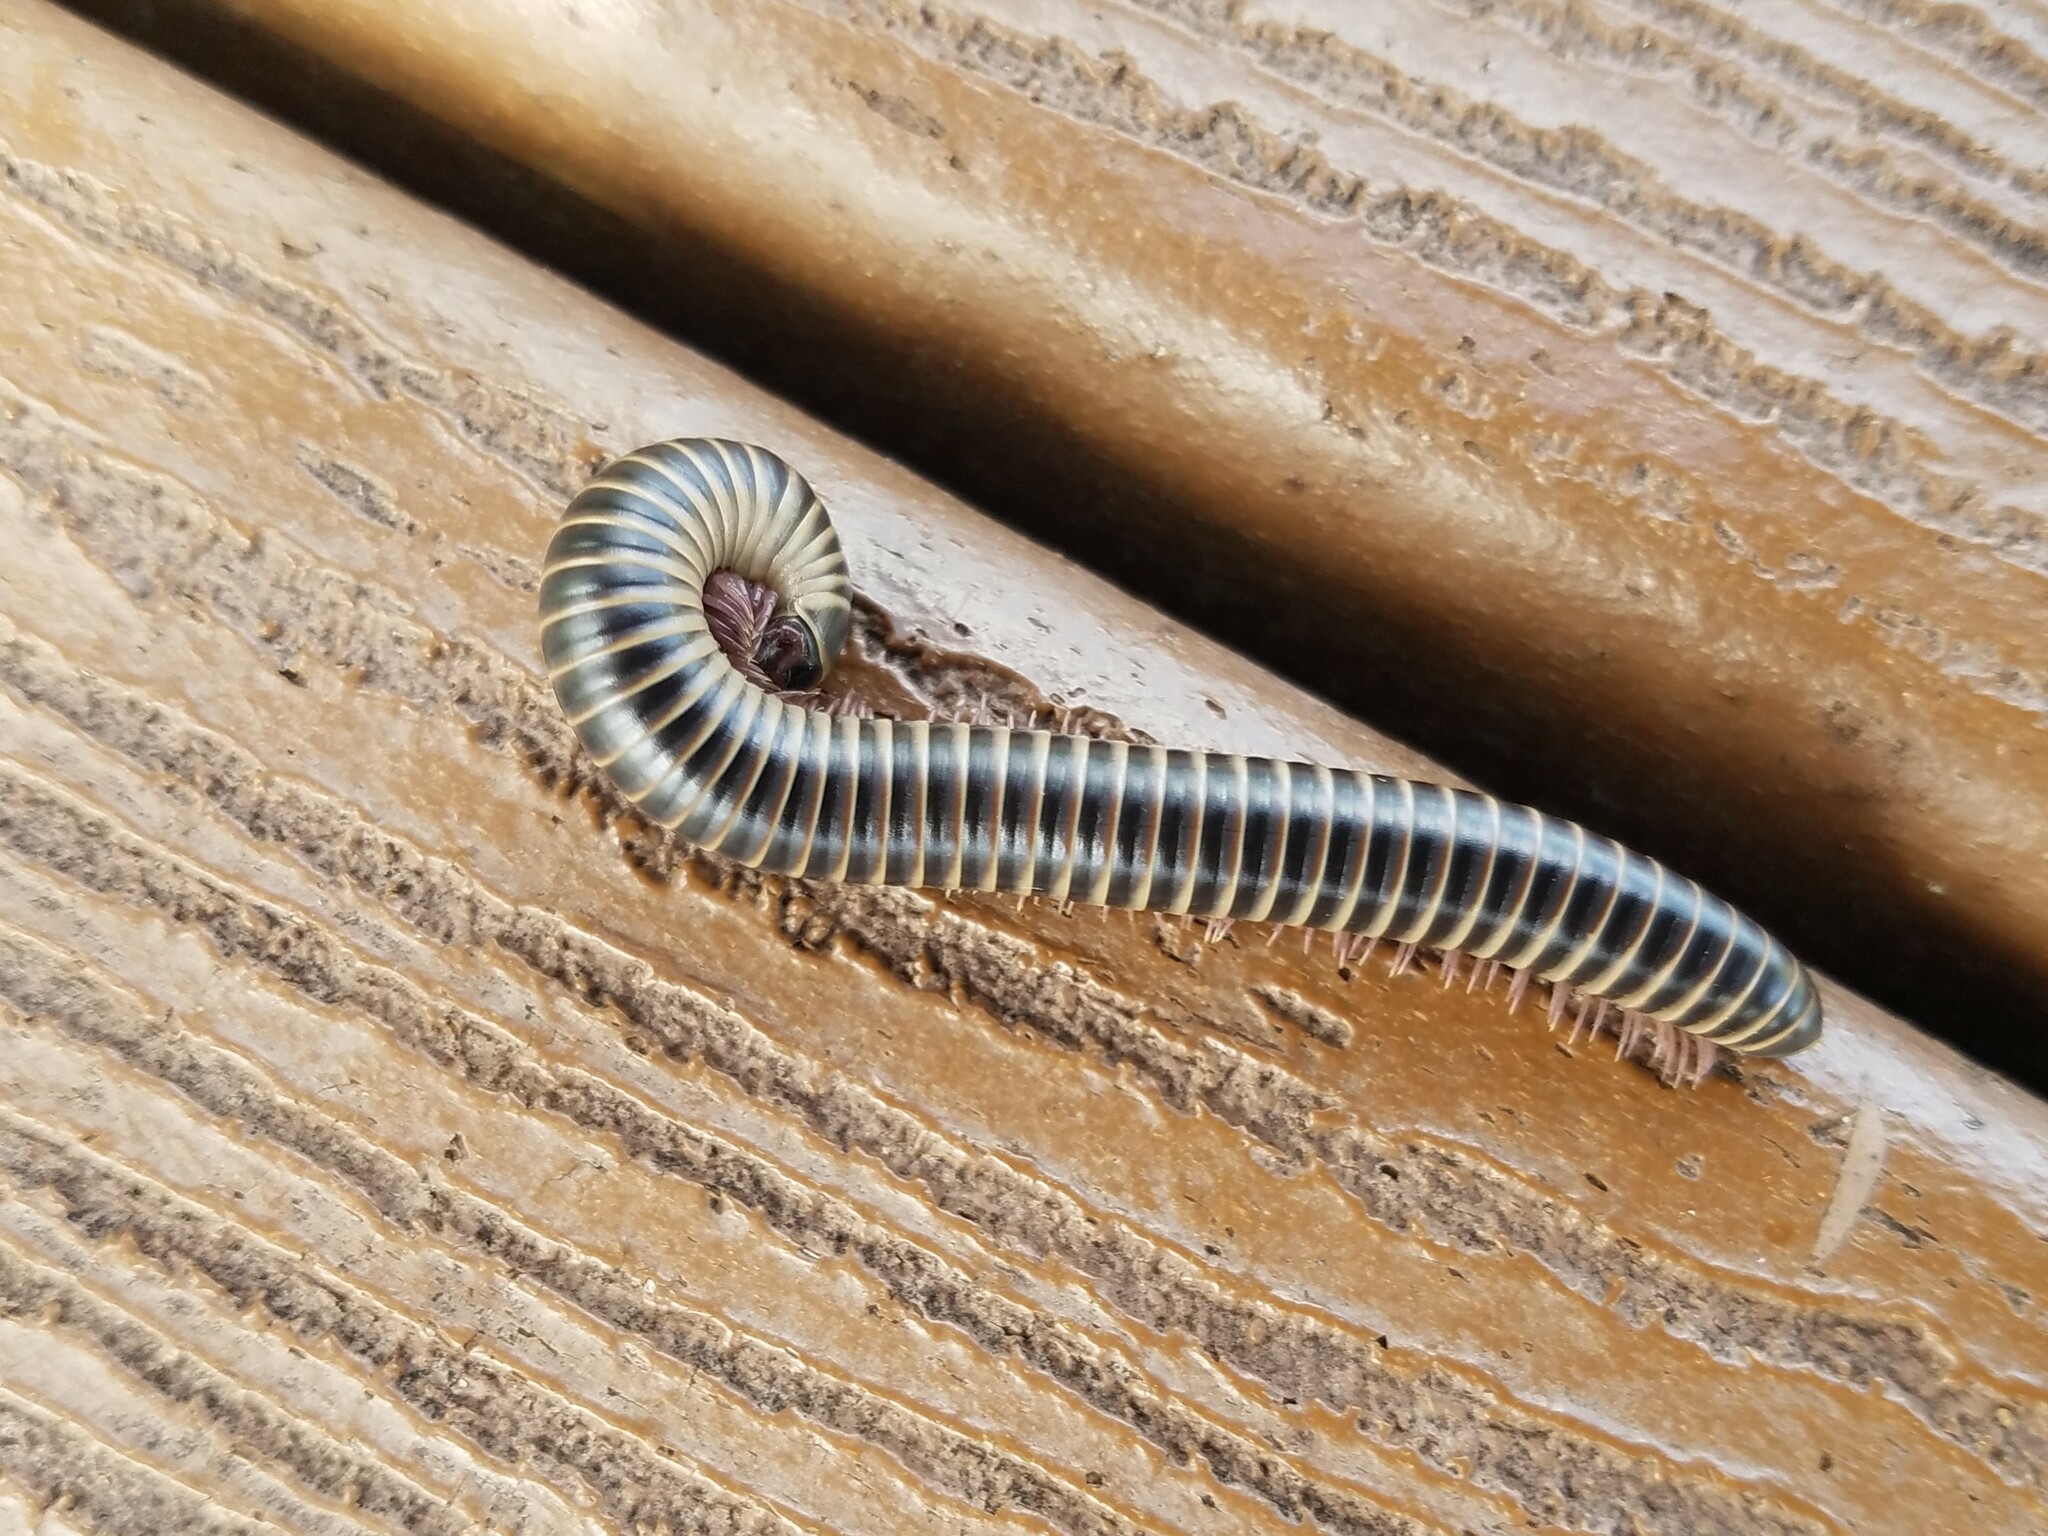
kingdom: Animalia
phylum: Arthropoda
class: Diplopoda
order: Spirobolida
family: Spirobolidae
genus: Chicobolus
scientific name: Chicobolus spinigerus
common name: Florida ivory millipede
